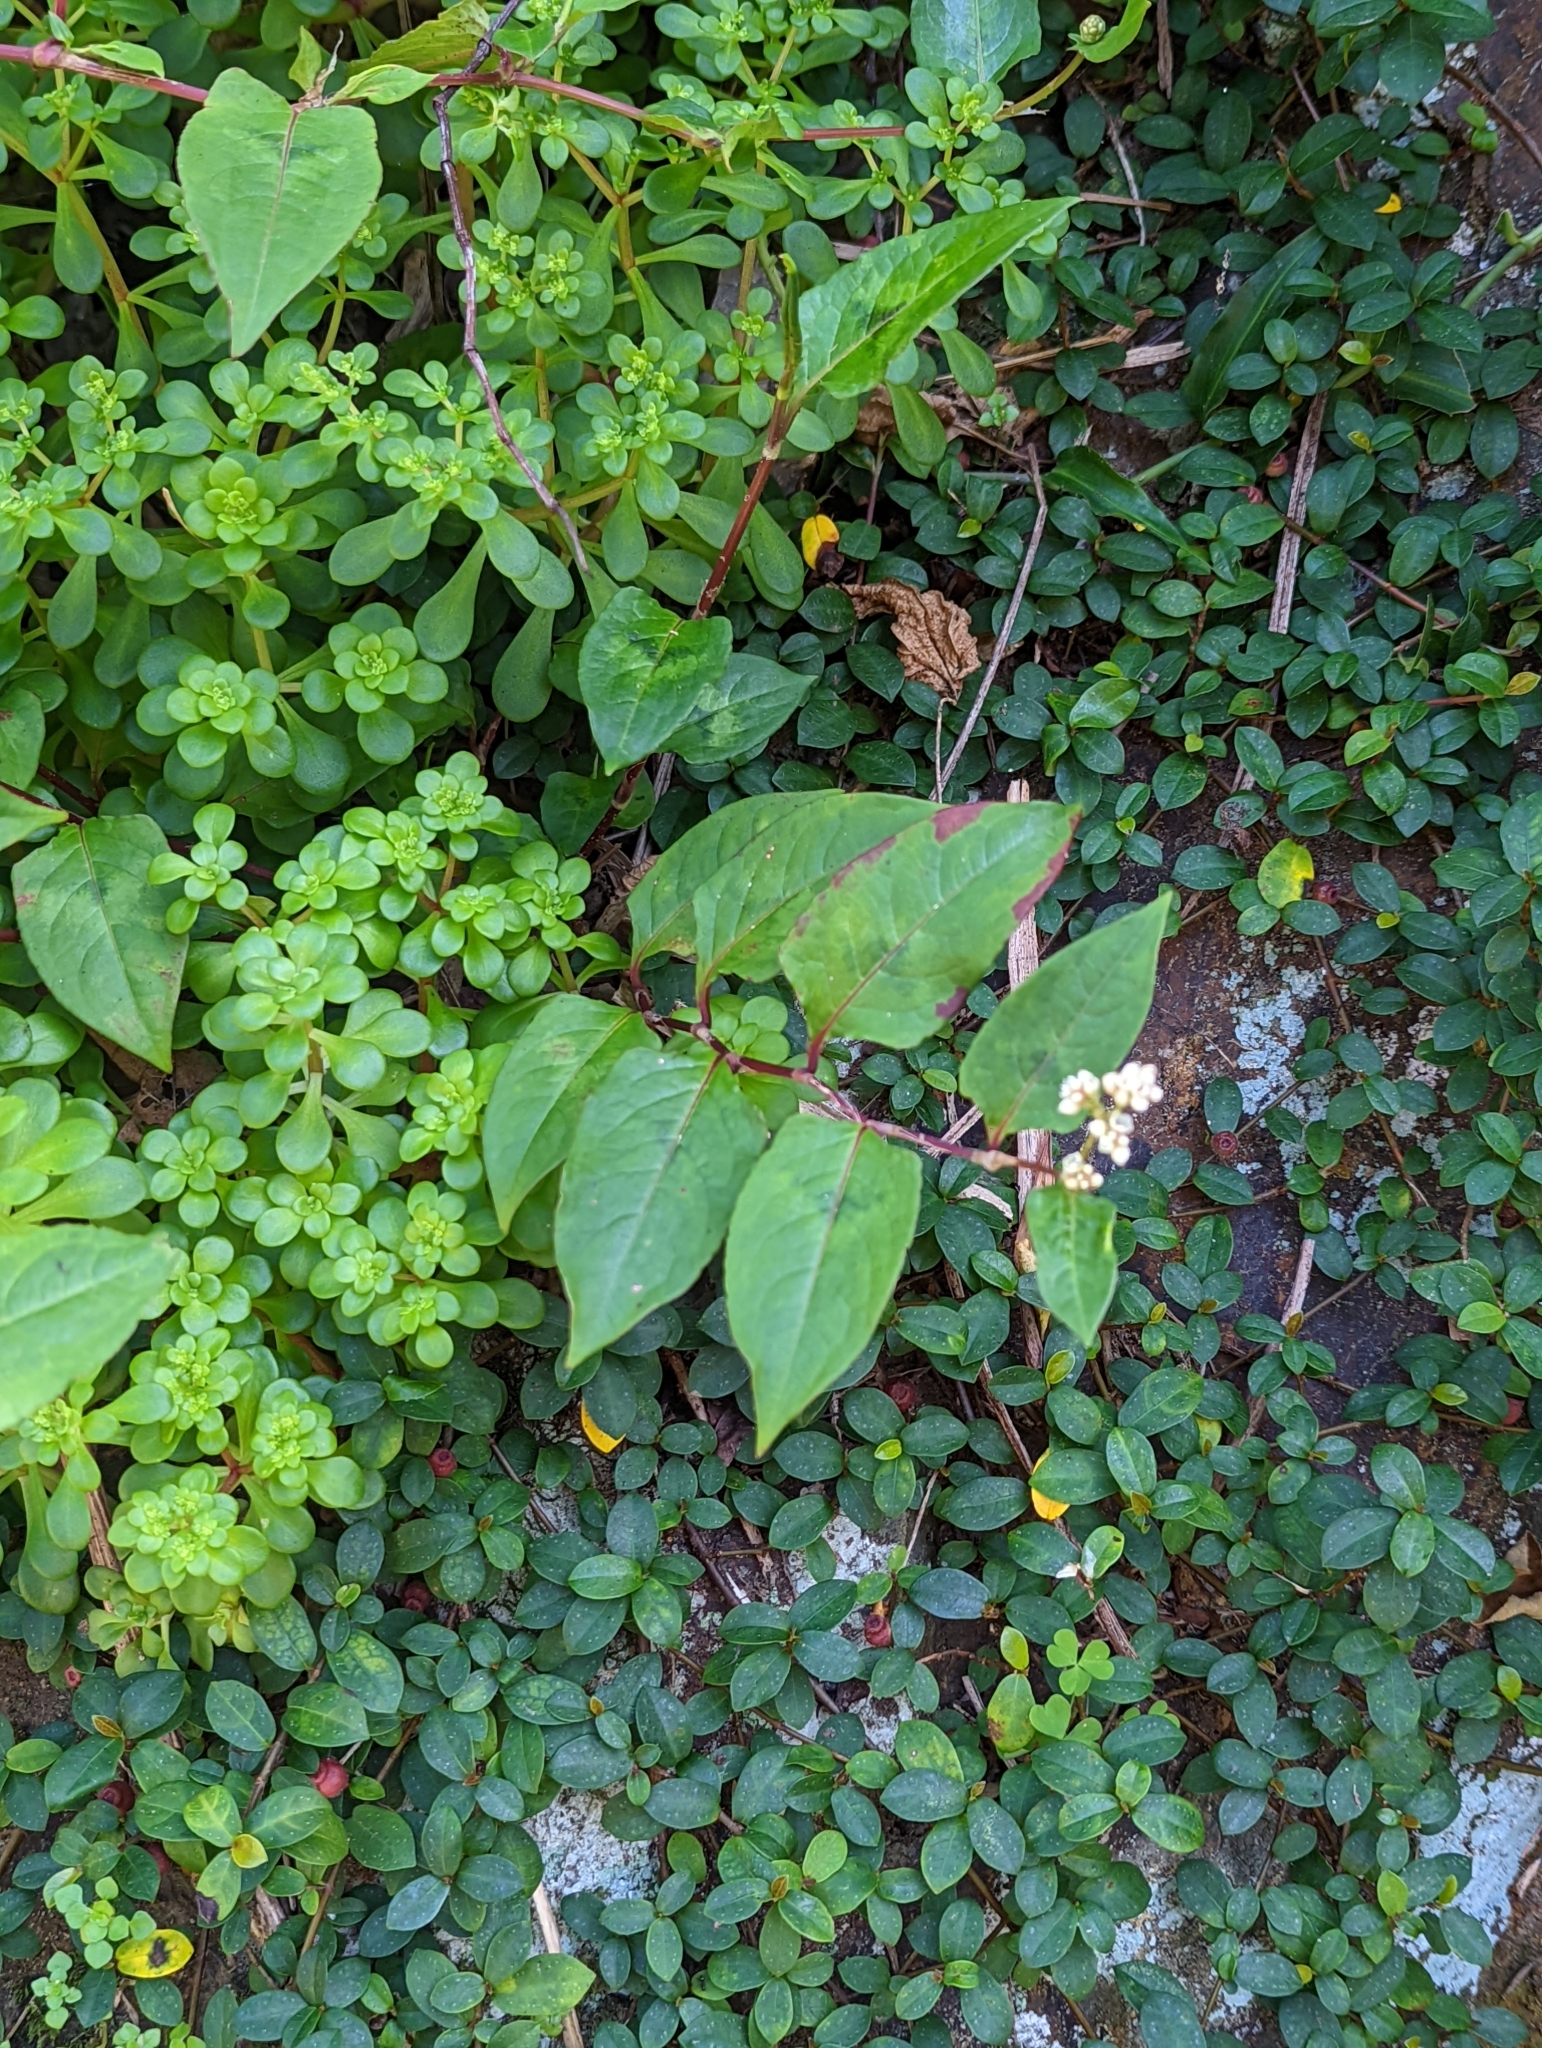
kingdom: Plantae
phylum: Tracheophyta
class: Magnoliopsida
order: Caryophyllales
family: Polygonaceae
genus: Persicaria
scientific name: Persicaria chinensis
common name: Chinese knotweed
